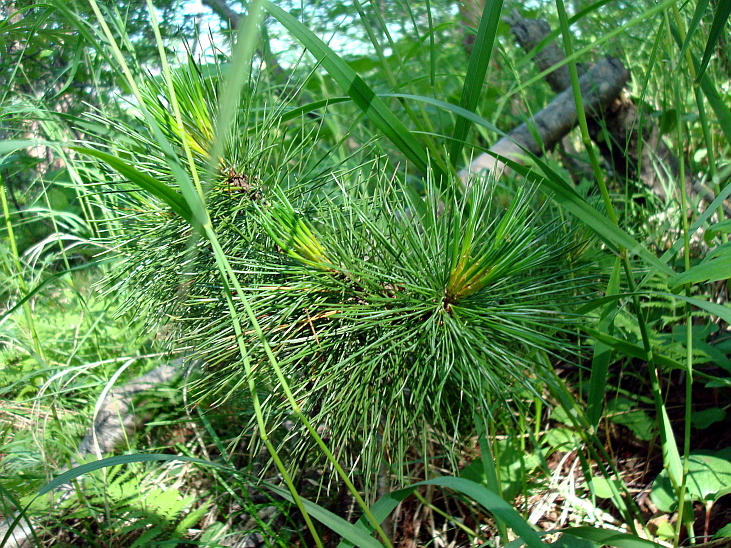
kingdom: Plantae
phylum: Tracheophyta
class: Pinopsida
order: Pinales
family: Pinaceae
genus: Pinus
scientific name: Pinus pumila
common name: Dwarf siberian pine
